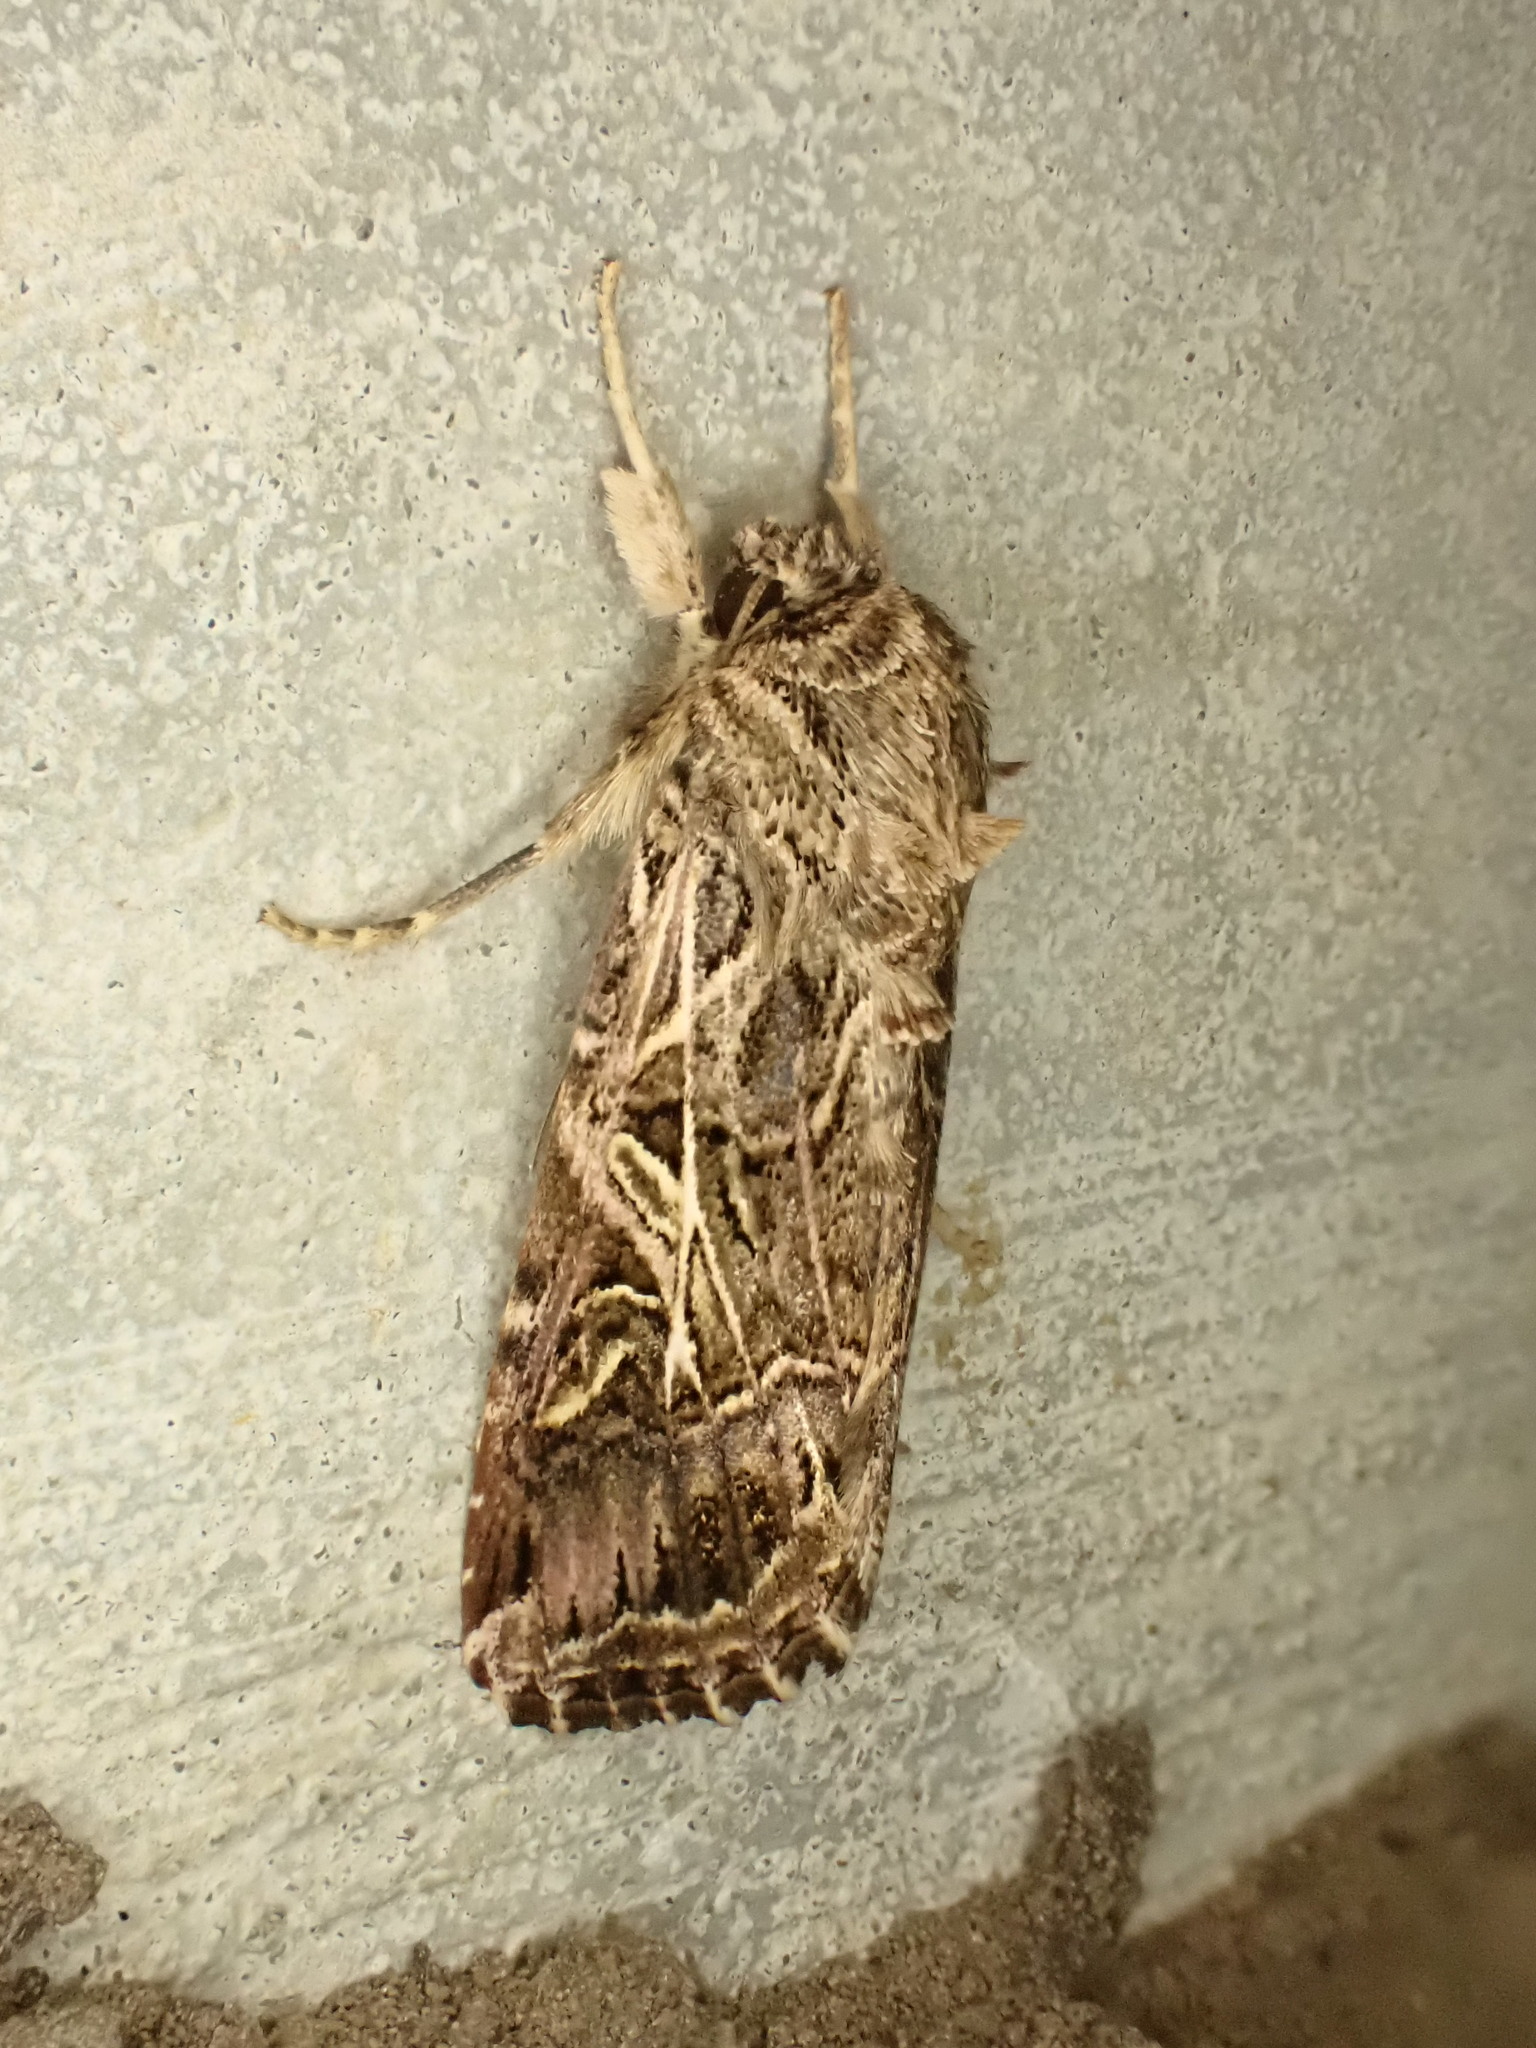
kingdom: Animalia
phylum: Arthropoda
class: Insecta
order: Lepidoptera
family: Noctuidae
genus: Spodoptera
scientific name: Spodoptera litura
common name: Asian cotton leafworm
